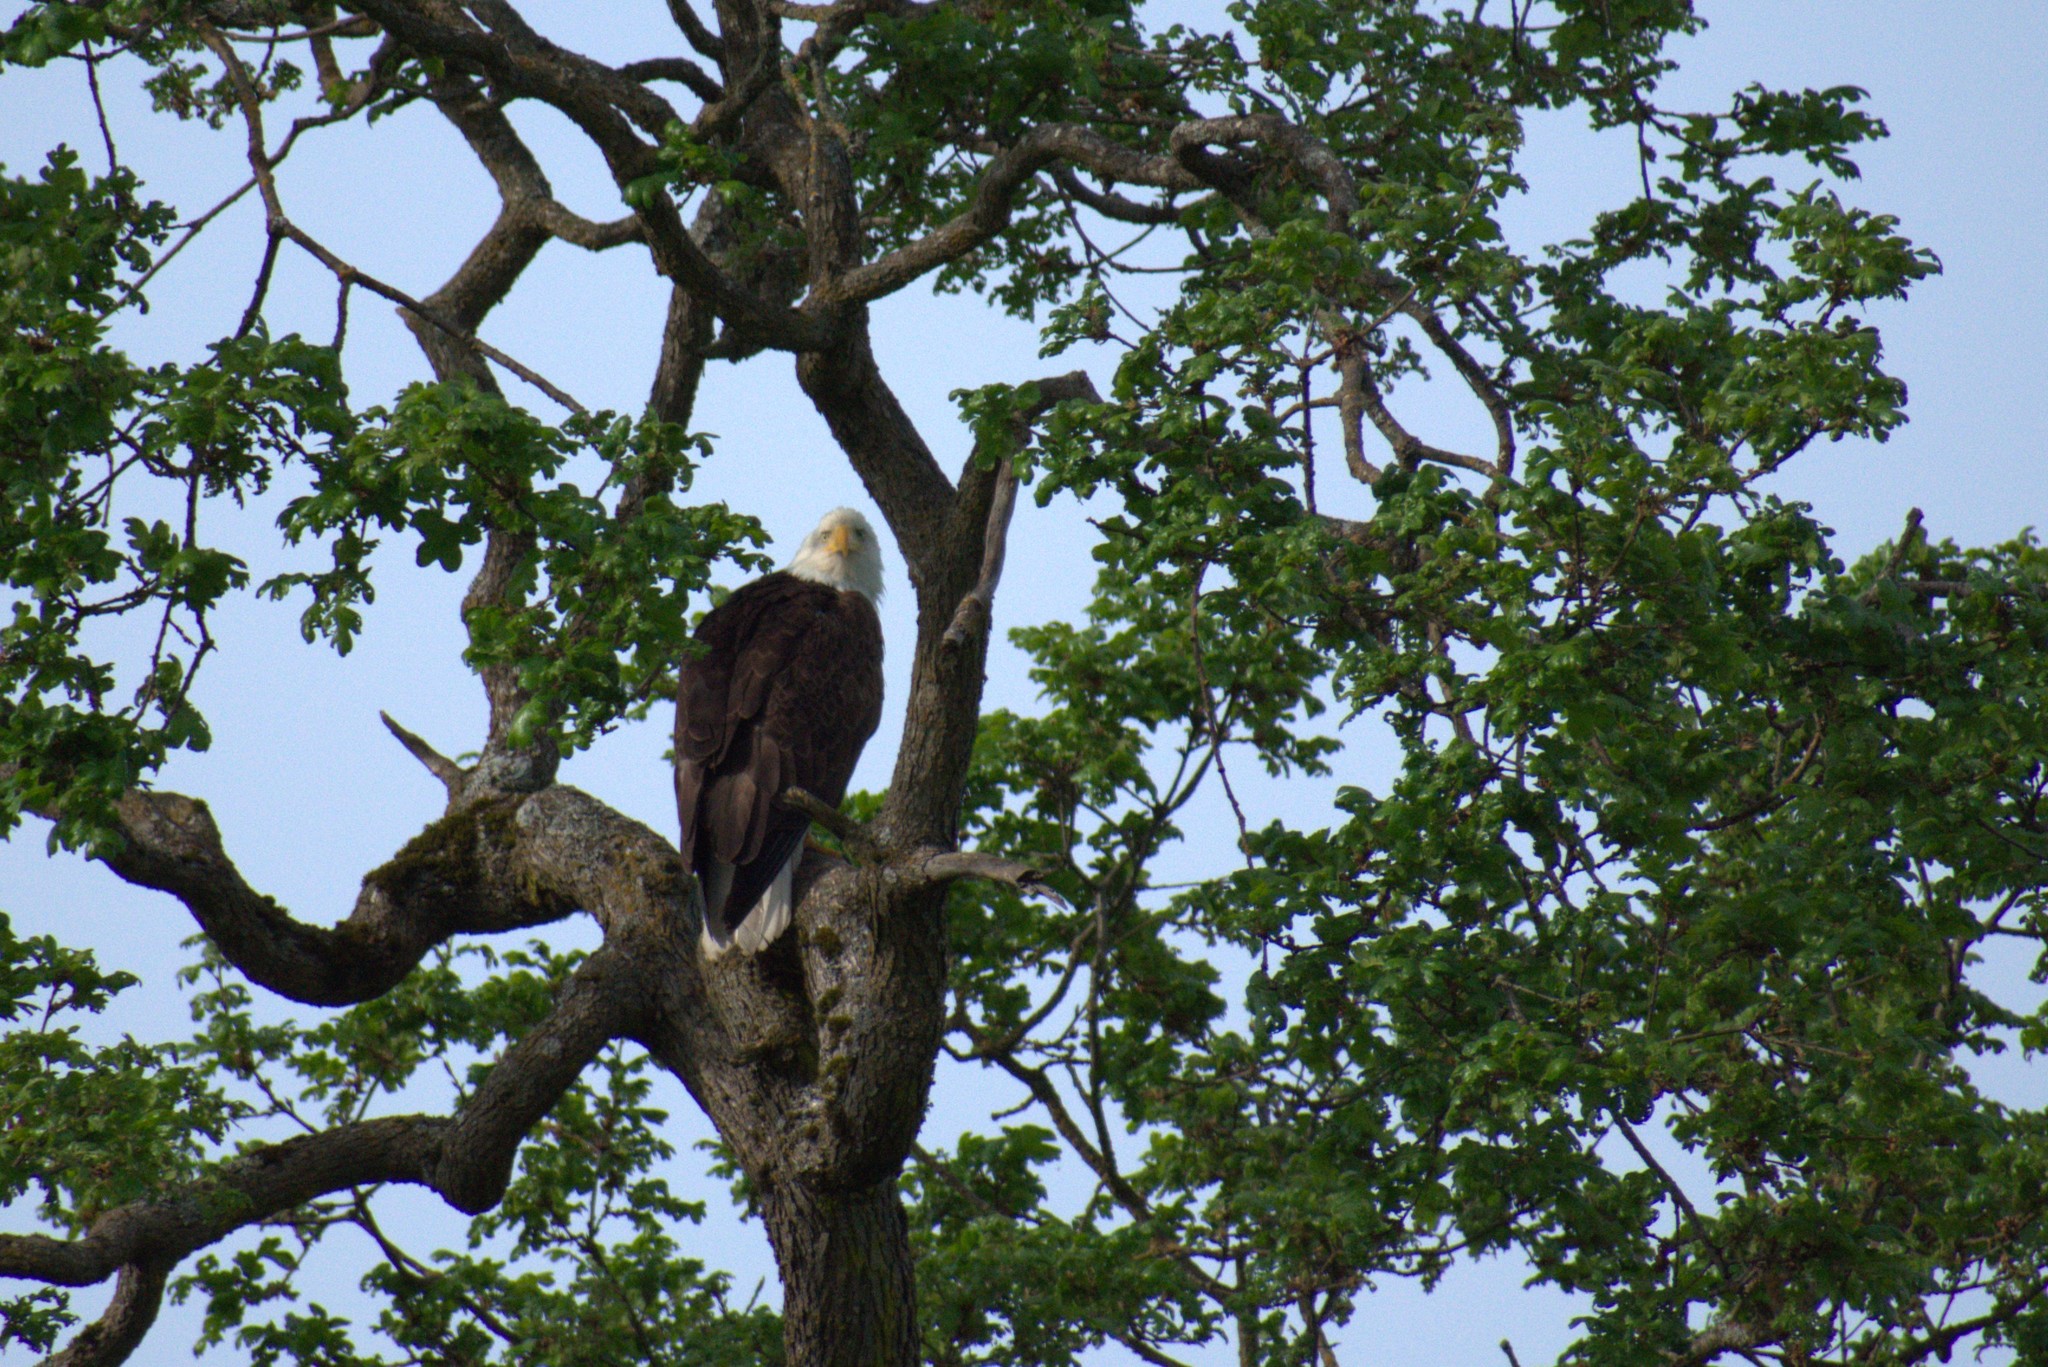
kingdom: Animalia
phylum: Chordata
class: Aves
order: Accipitriformes
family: Accipitridae
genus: Haliaeetus
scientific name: Haliaeetus leucocephalus
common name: Bald eagle
